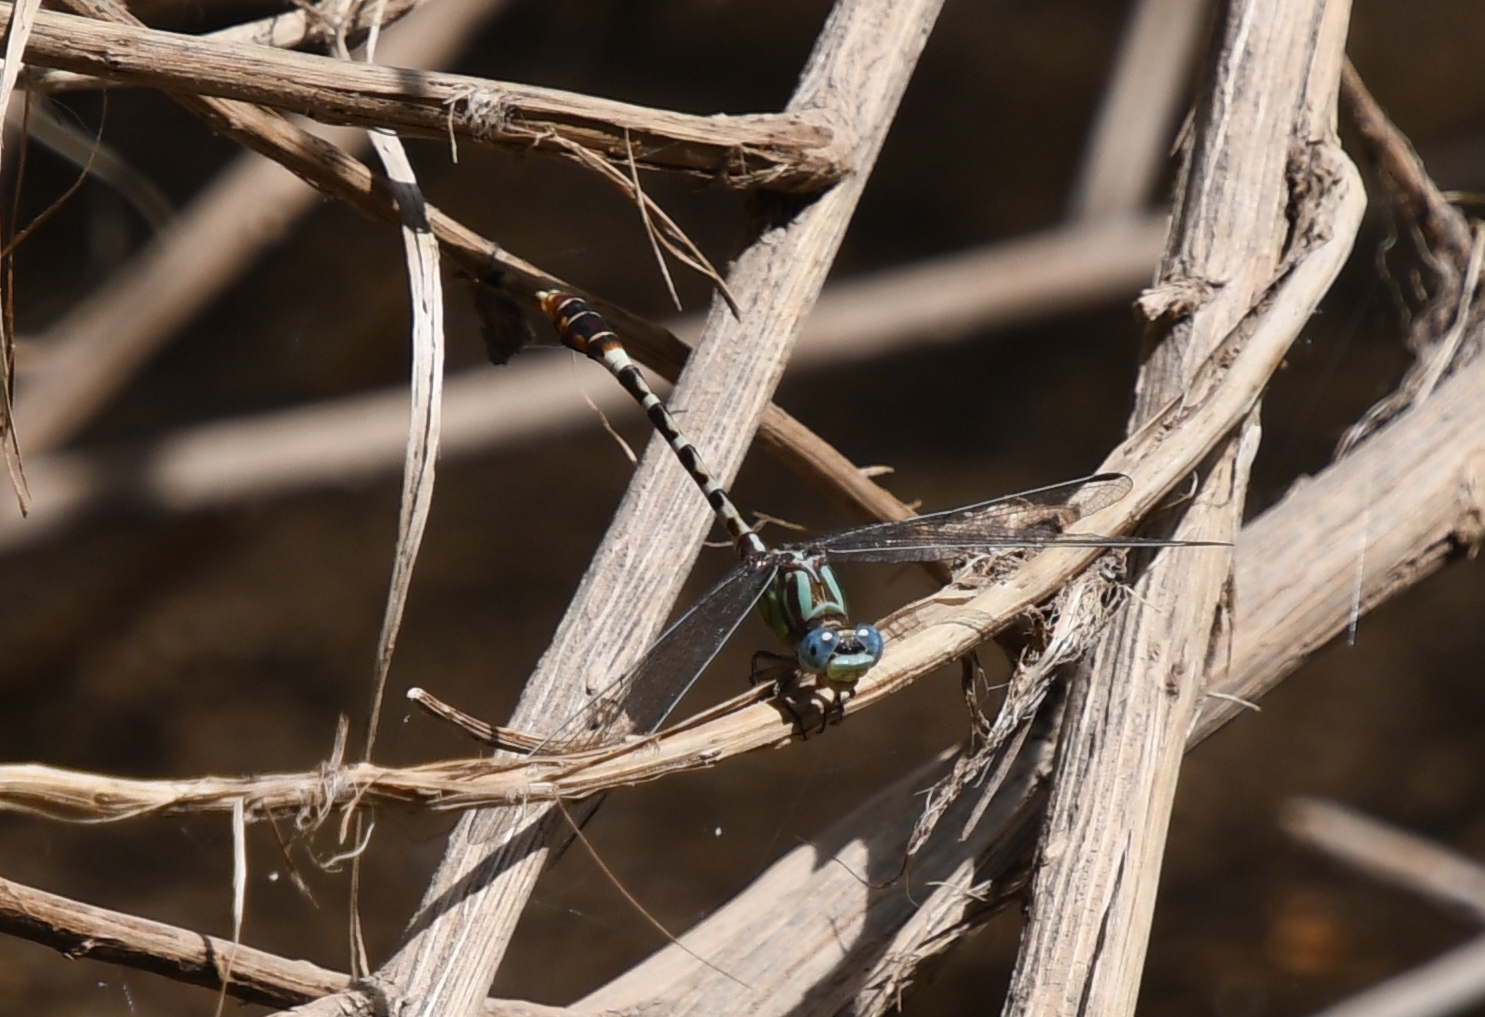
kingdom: Animalia
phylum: Arthropoda
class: Insecta
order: Odonata
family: Gomphidae
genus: Erpetogomphus
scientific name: Erpetogomphus lampropeltis
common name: Serpent ringtail
